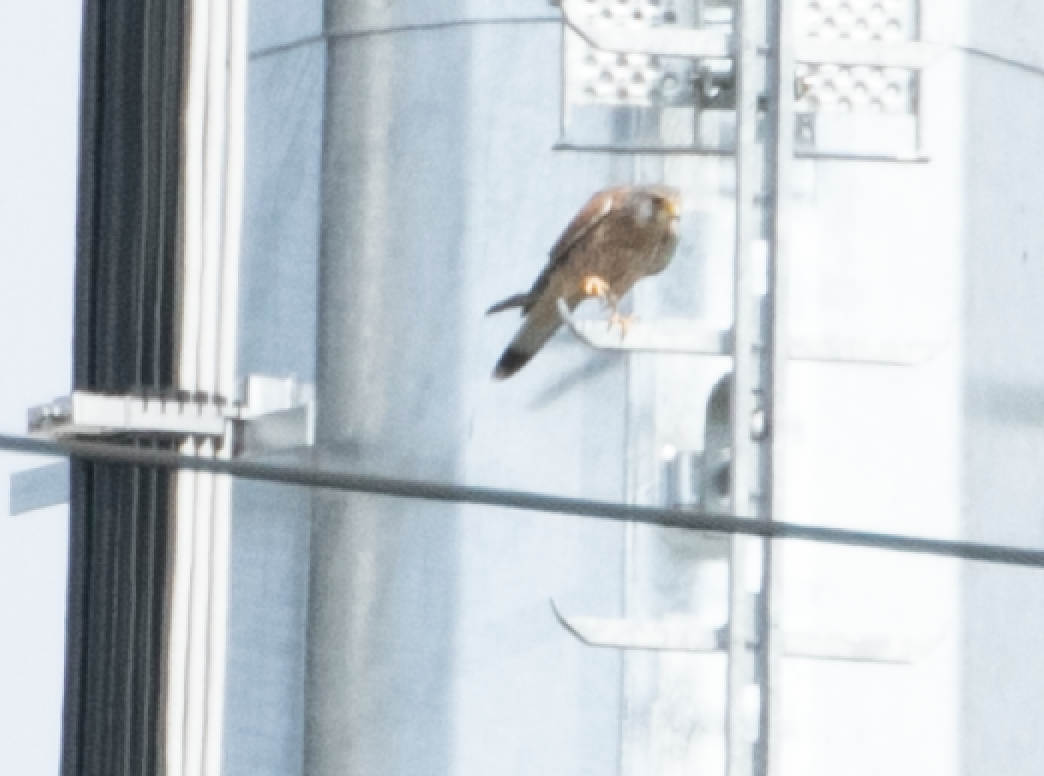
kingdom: Animalia
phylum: Chordata
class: Aves
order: Falconiformes
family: Falconidae
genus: Falco
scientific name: Falco tinnunculus
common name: Common kestrel
